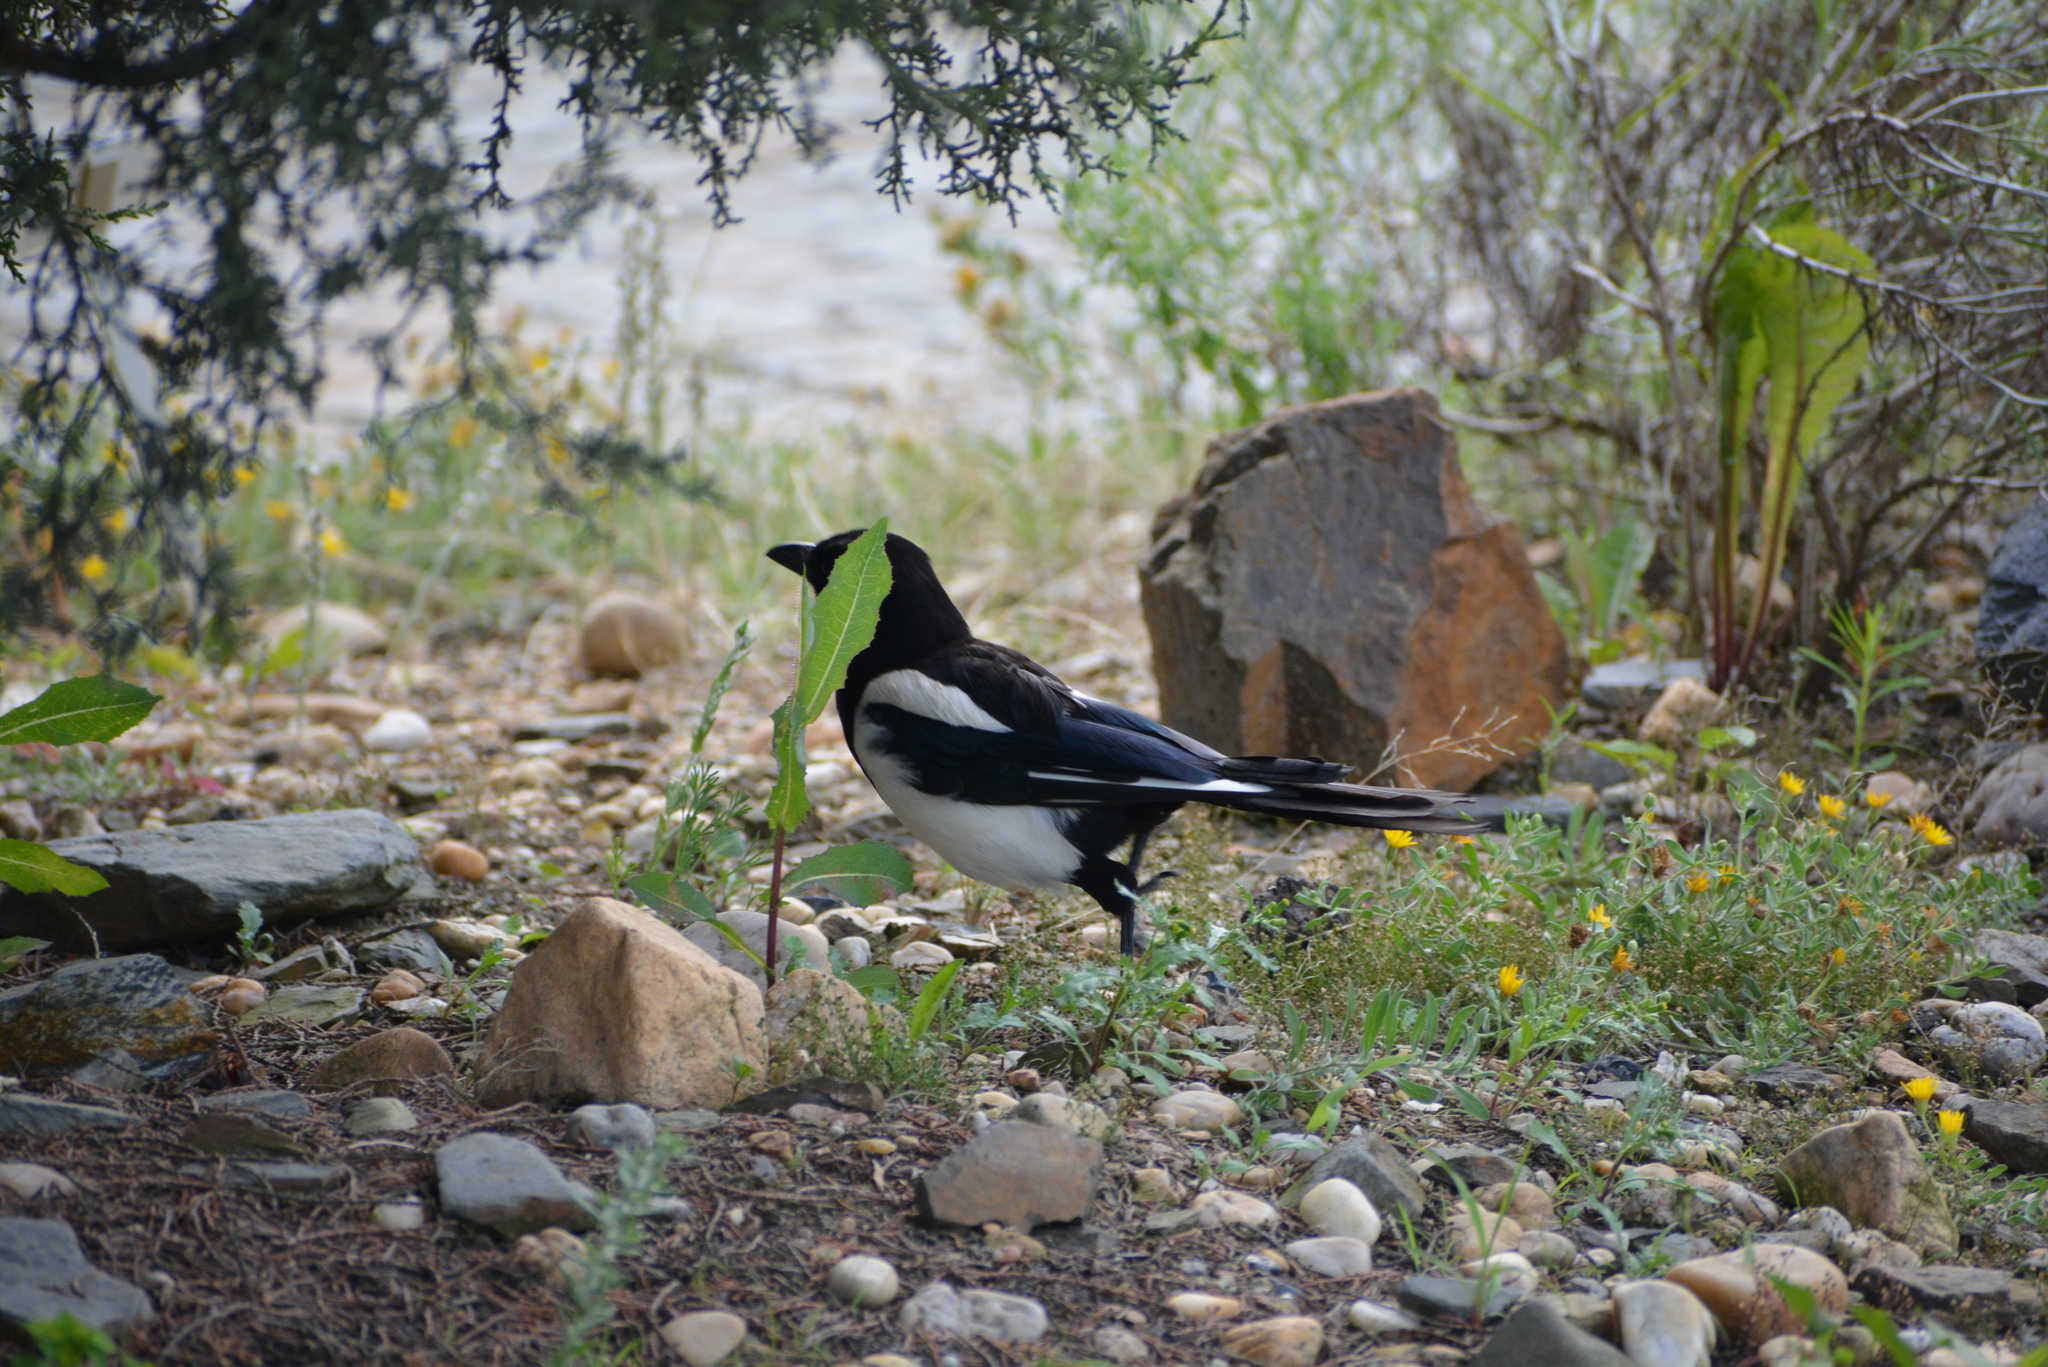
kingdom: Animalia
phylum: Chordata
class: Aves
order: Passeriformes
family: Corvidae
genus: Pica
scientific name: Pica pica
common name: Eurasian magpie
